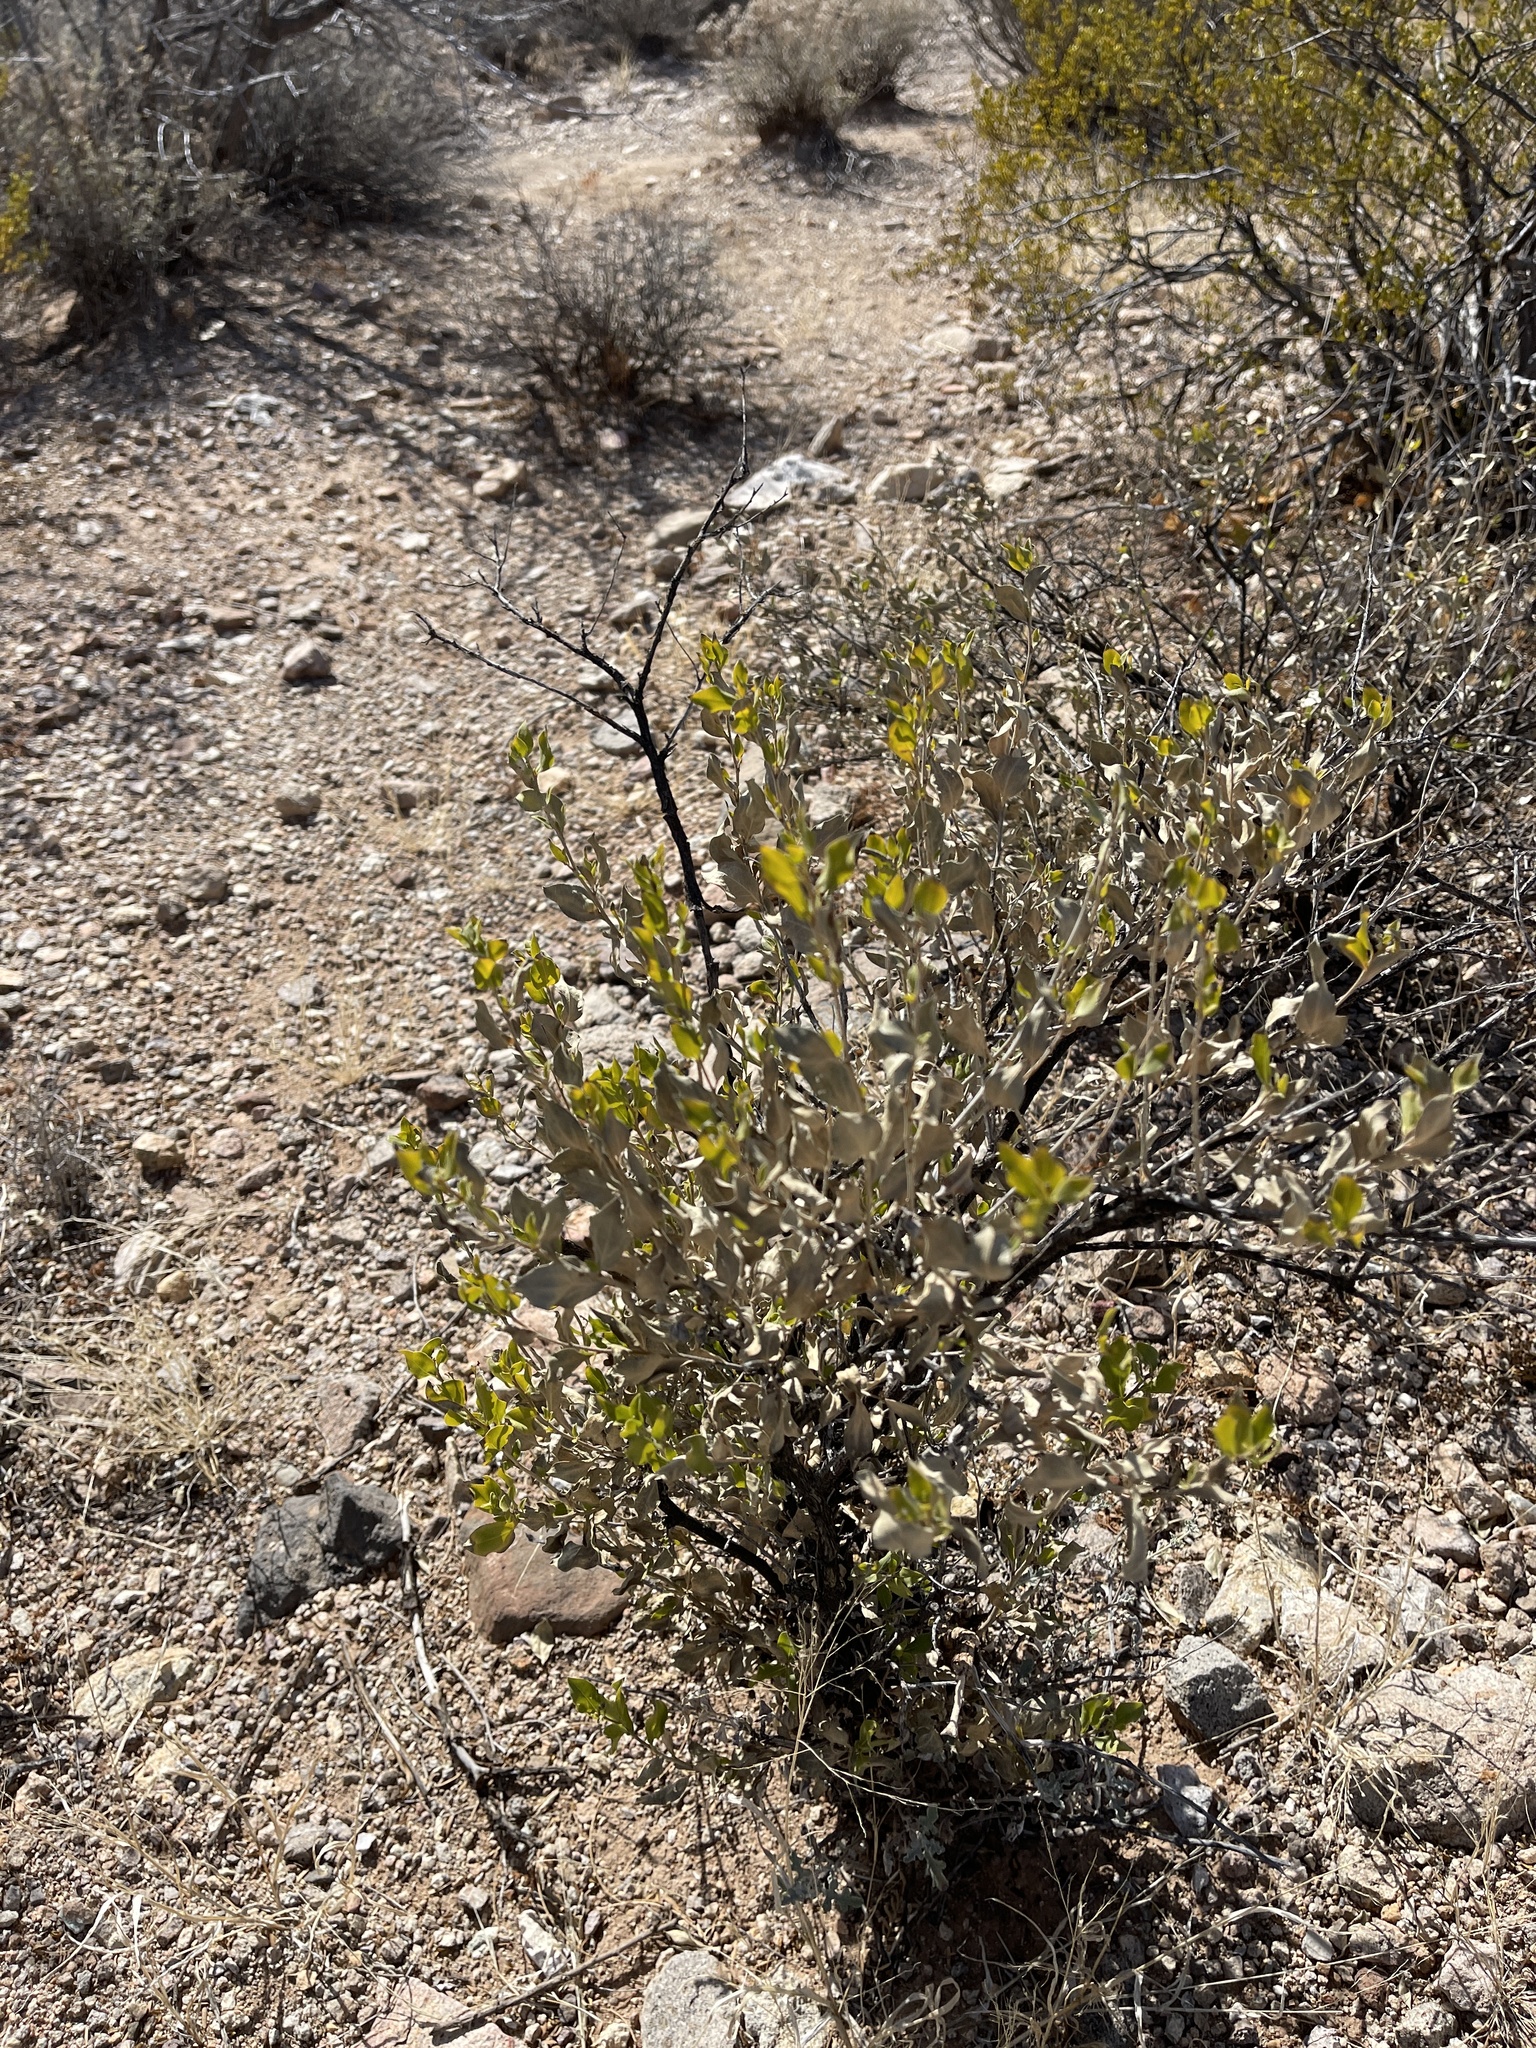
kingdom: Plantae
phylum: Tracheophyta
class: Magnoliopsida
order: Asterales
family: Asteraceae
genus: Flourensia
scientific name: Flourensia cernua
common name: Varnishbush
